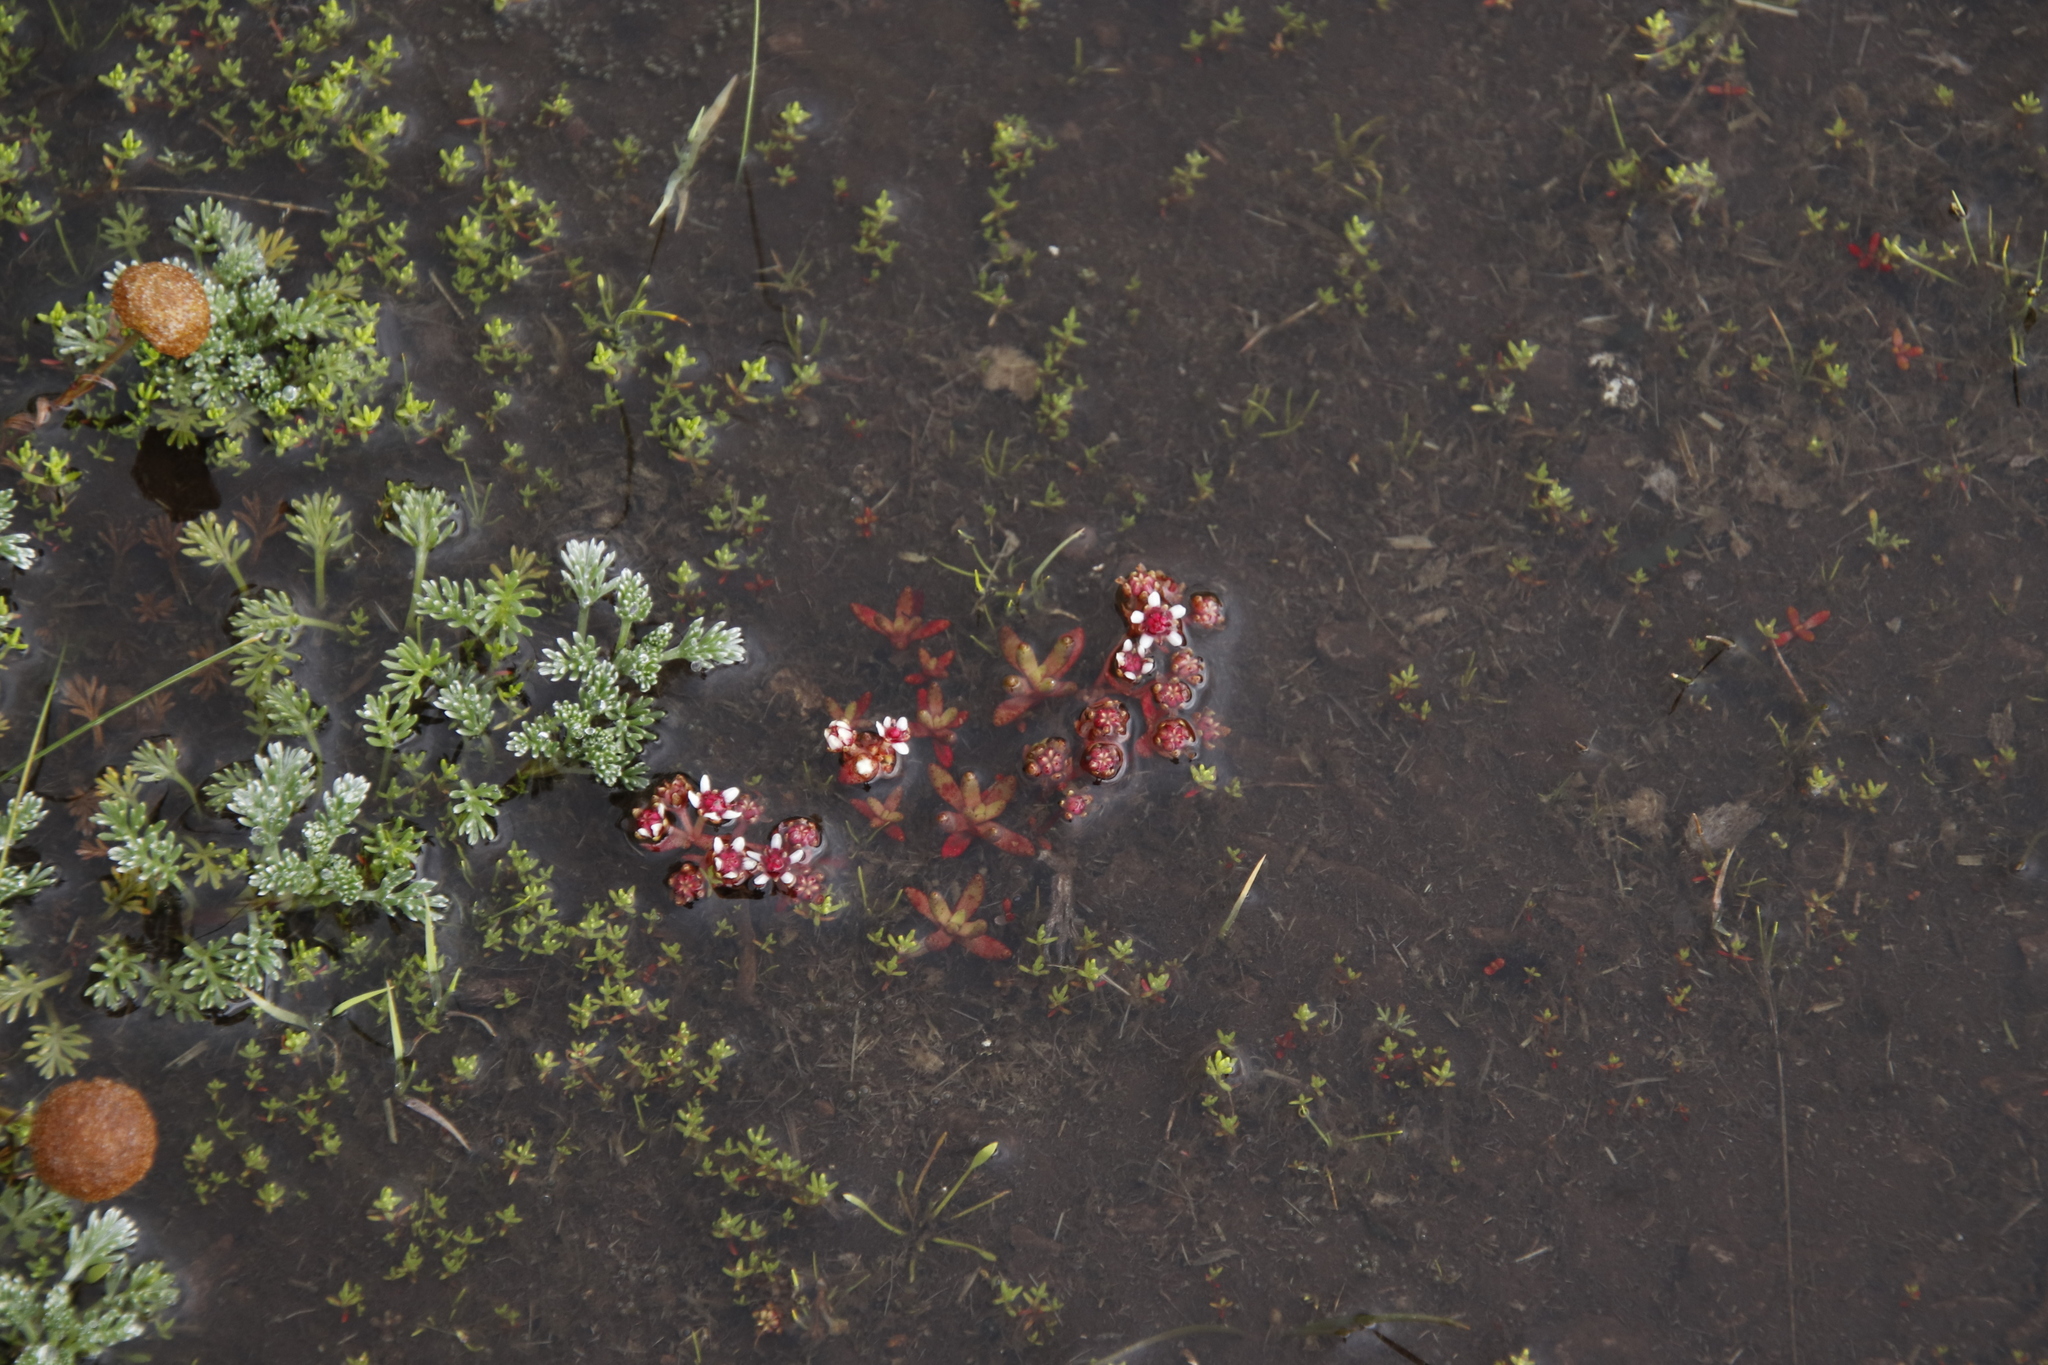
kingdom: Plantae
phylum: Tracheophyta
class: Magnoliopsida
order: Saxifragales
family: Crassulaceae
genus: Crassula
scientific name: Crassula peploides
